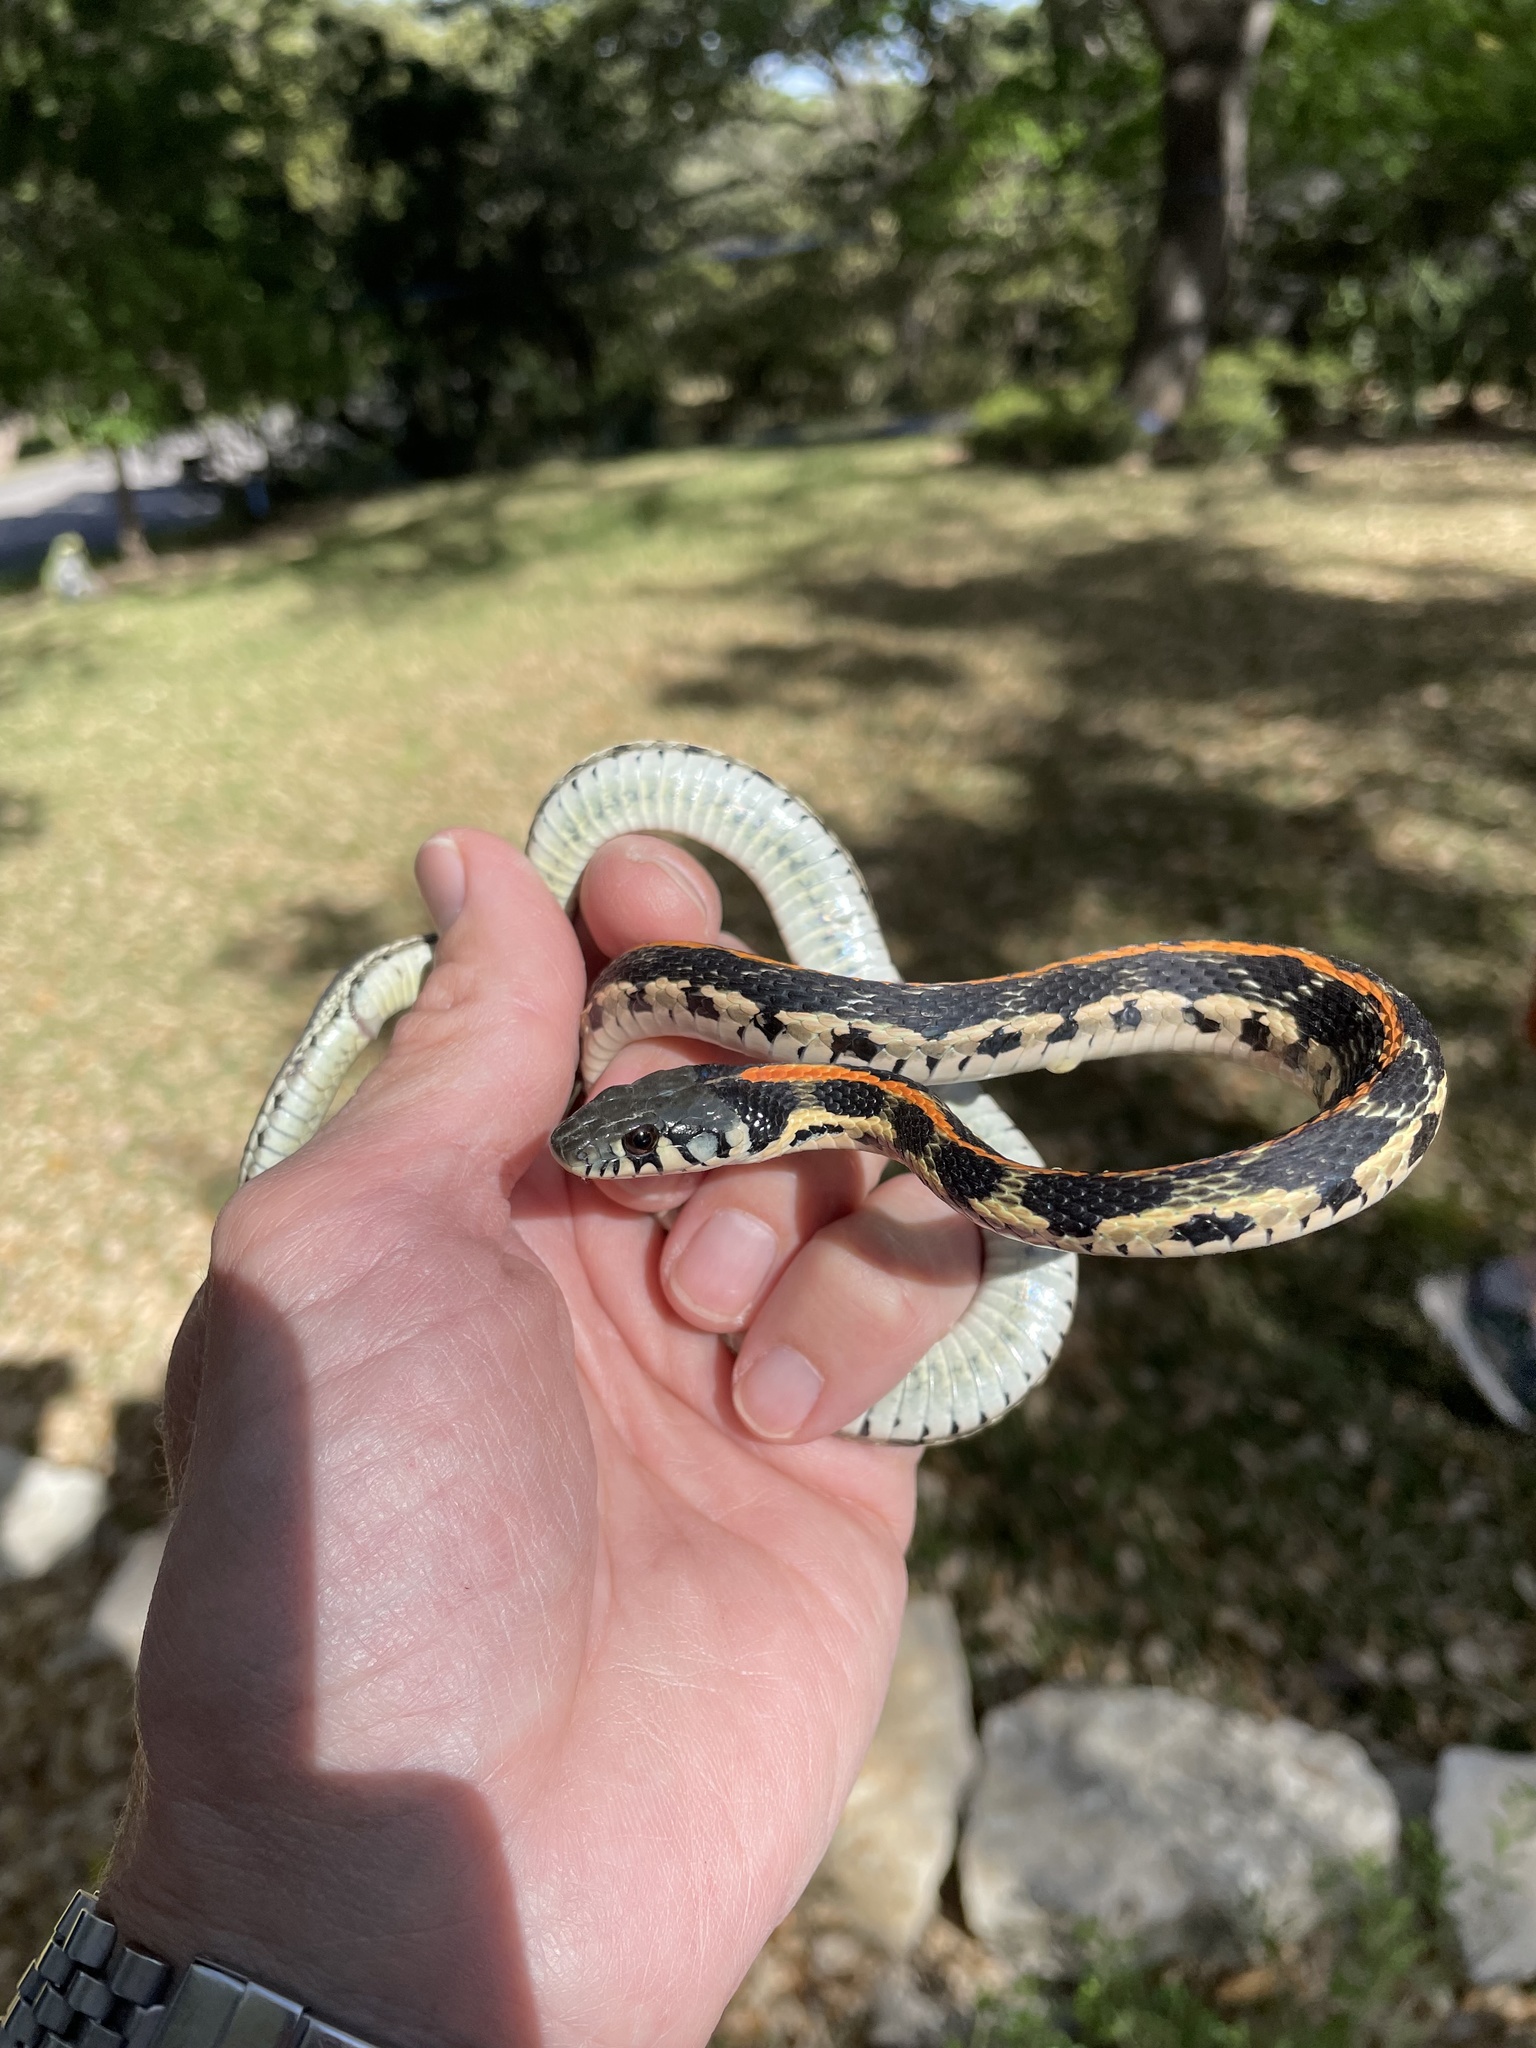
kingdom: Animalia
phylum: Chordata
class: Squamata
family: Colubridae
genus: Thamnophis
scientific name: Thamnophis cyrtopsis
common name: Black-necked gartersnake
